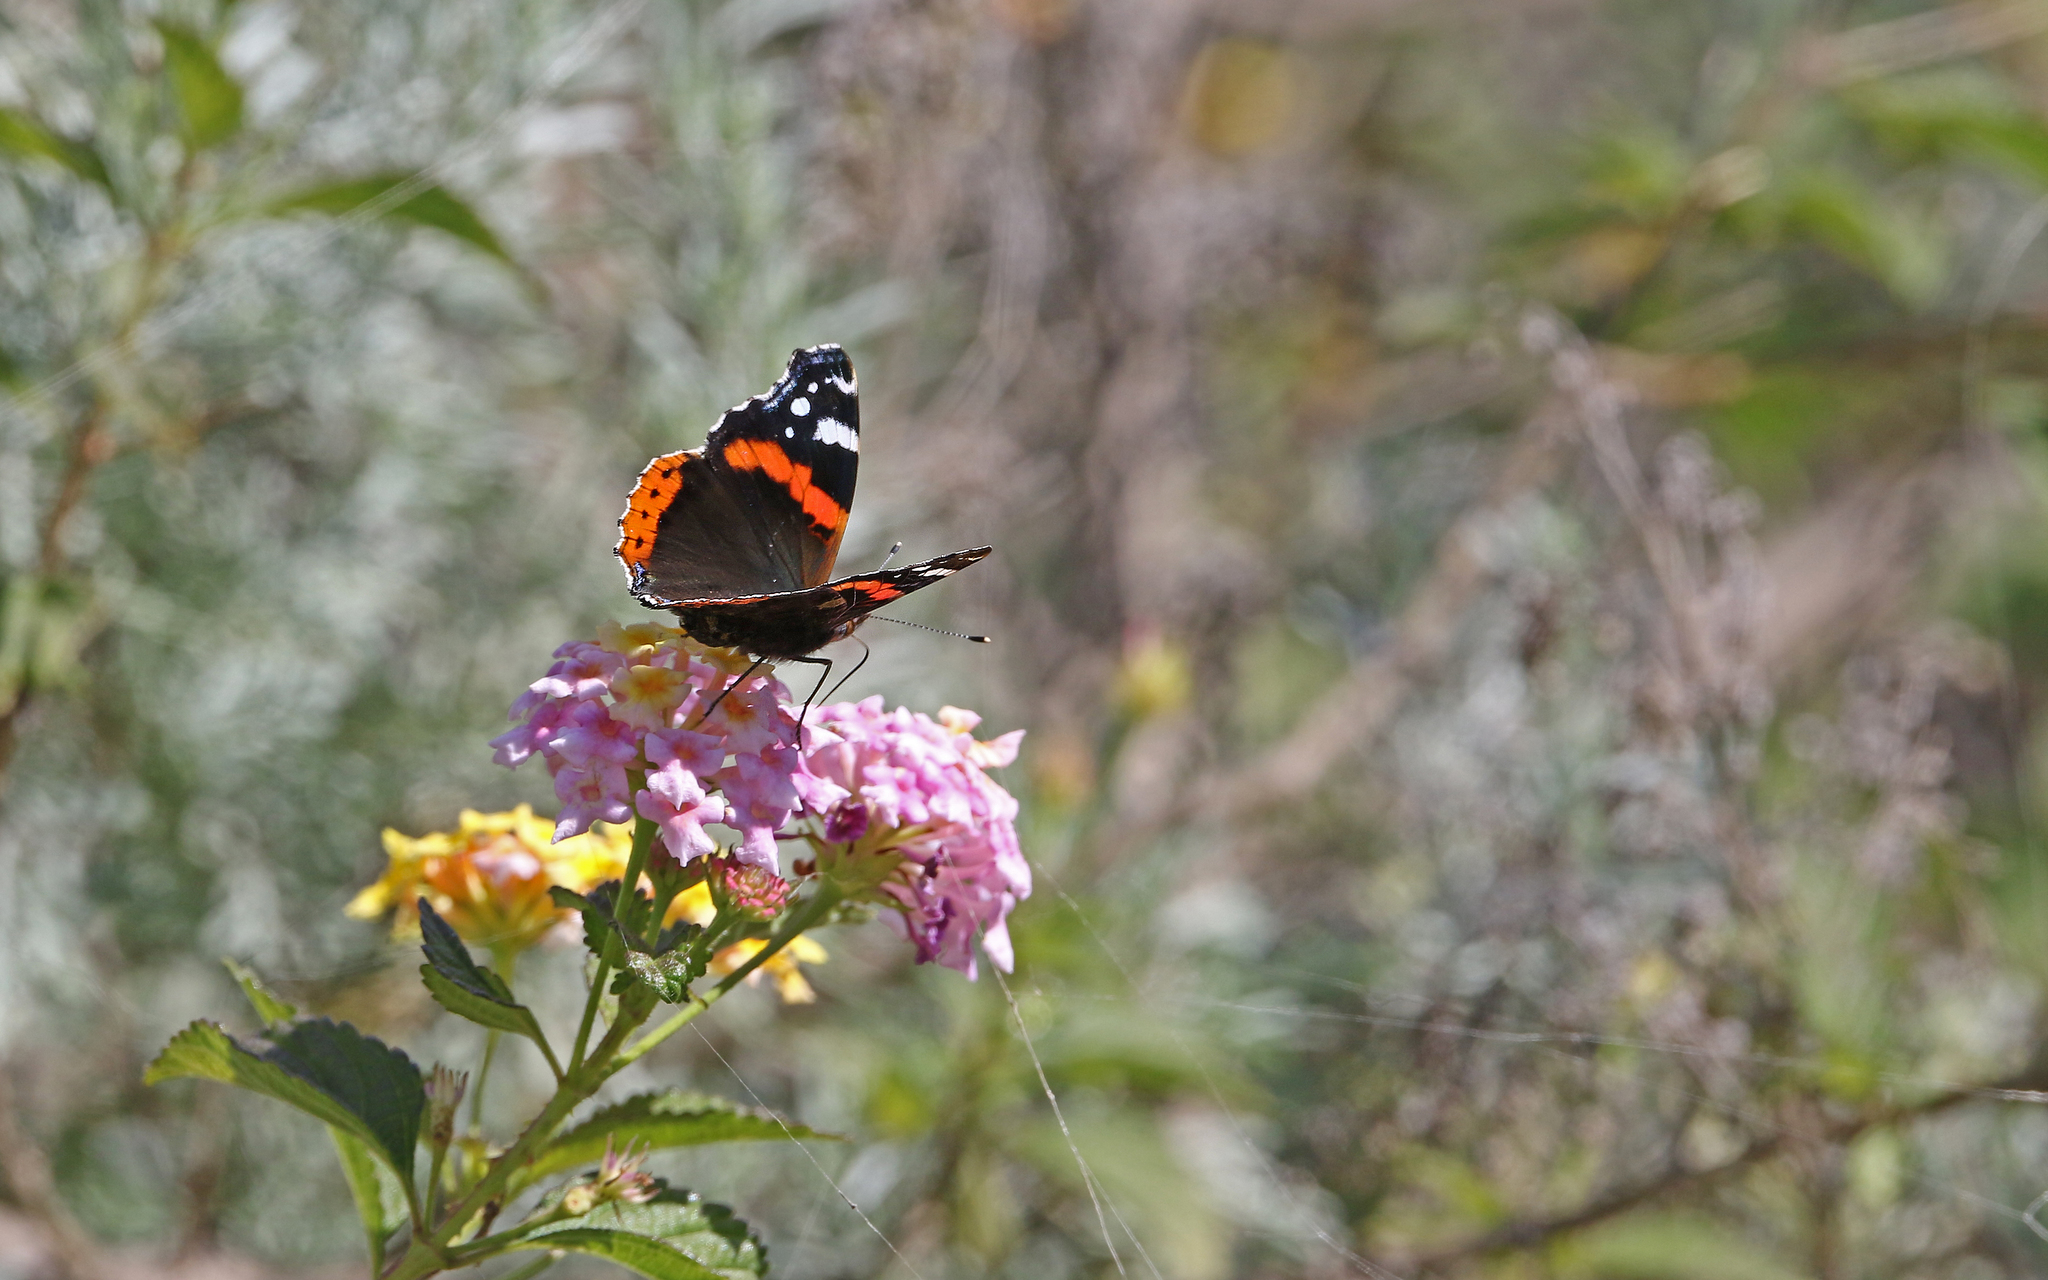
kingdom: Animalia
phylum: Arthropoda
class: Insecta
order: Lepidoptera
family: Nymphalidae
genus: Vanessa
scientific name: Vanessa atalanta
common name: Red admiral
